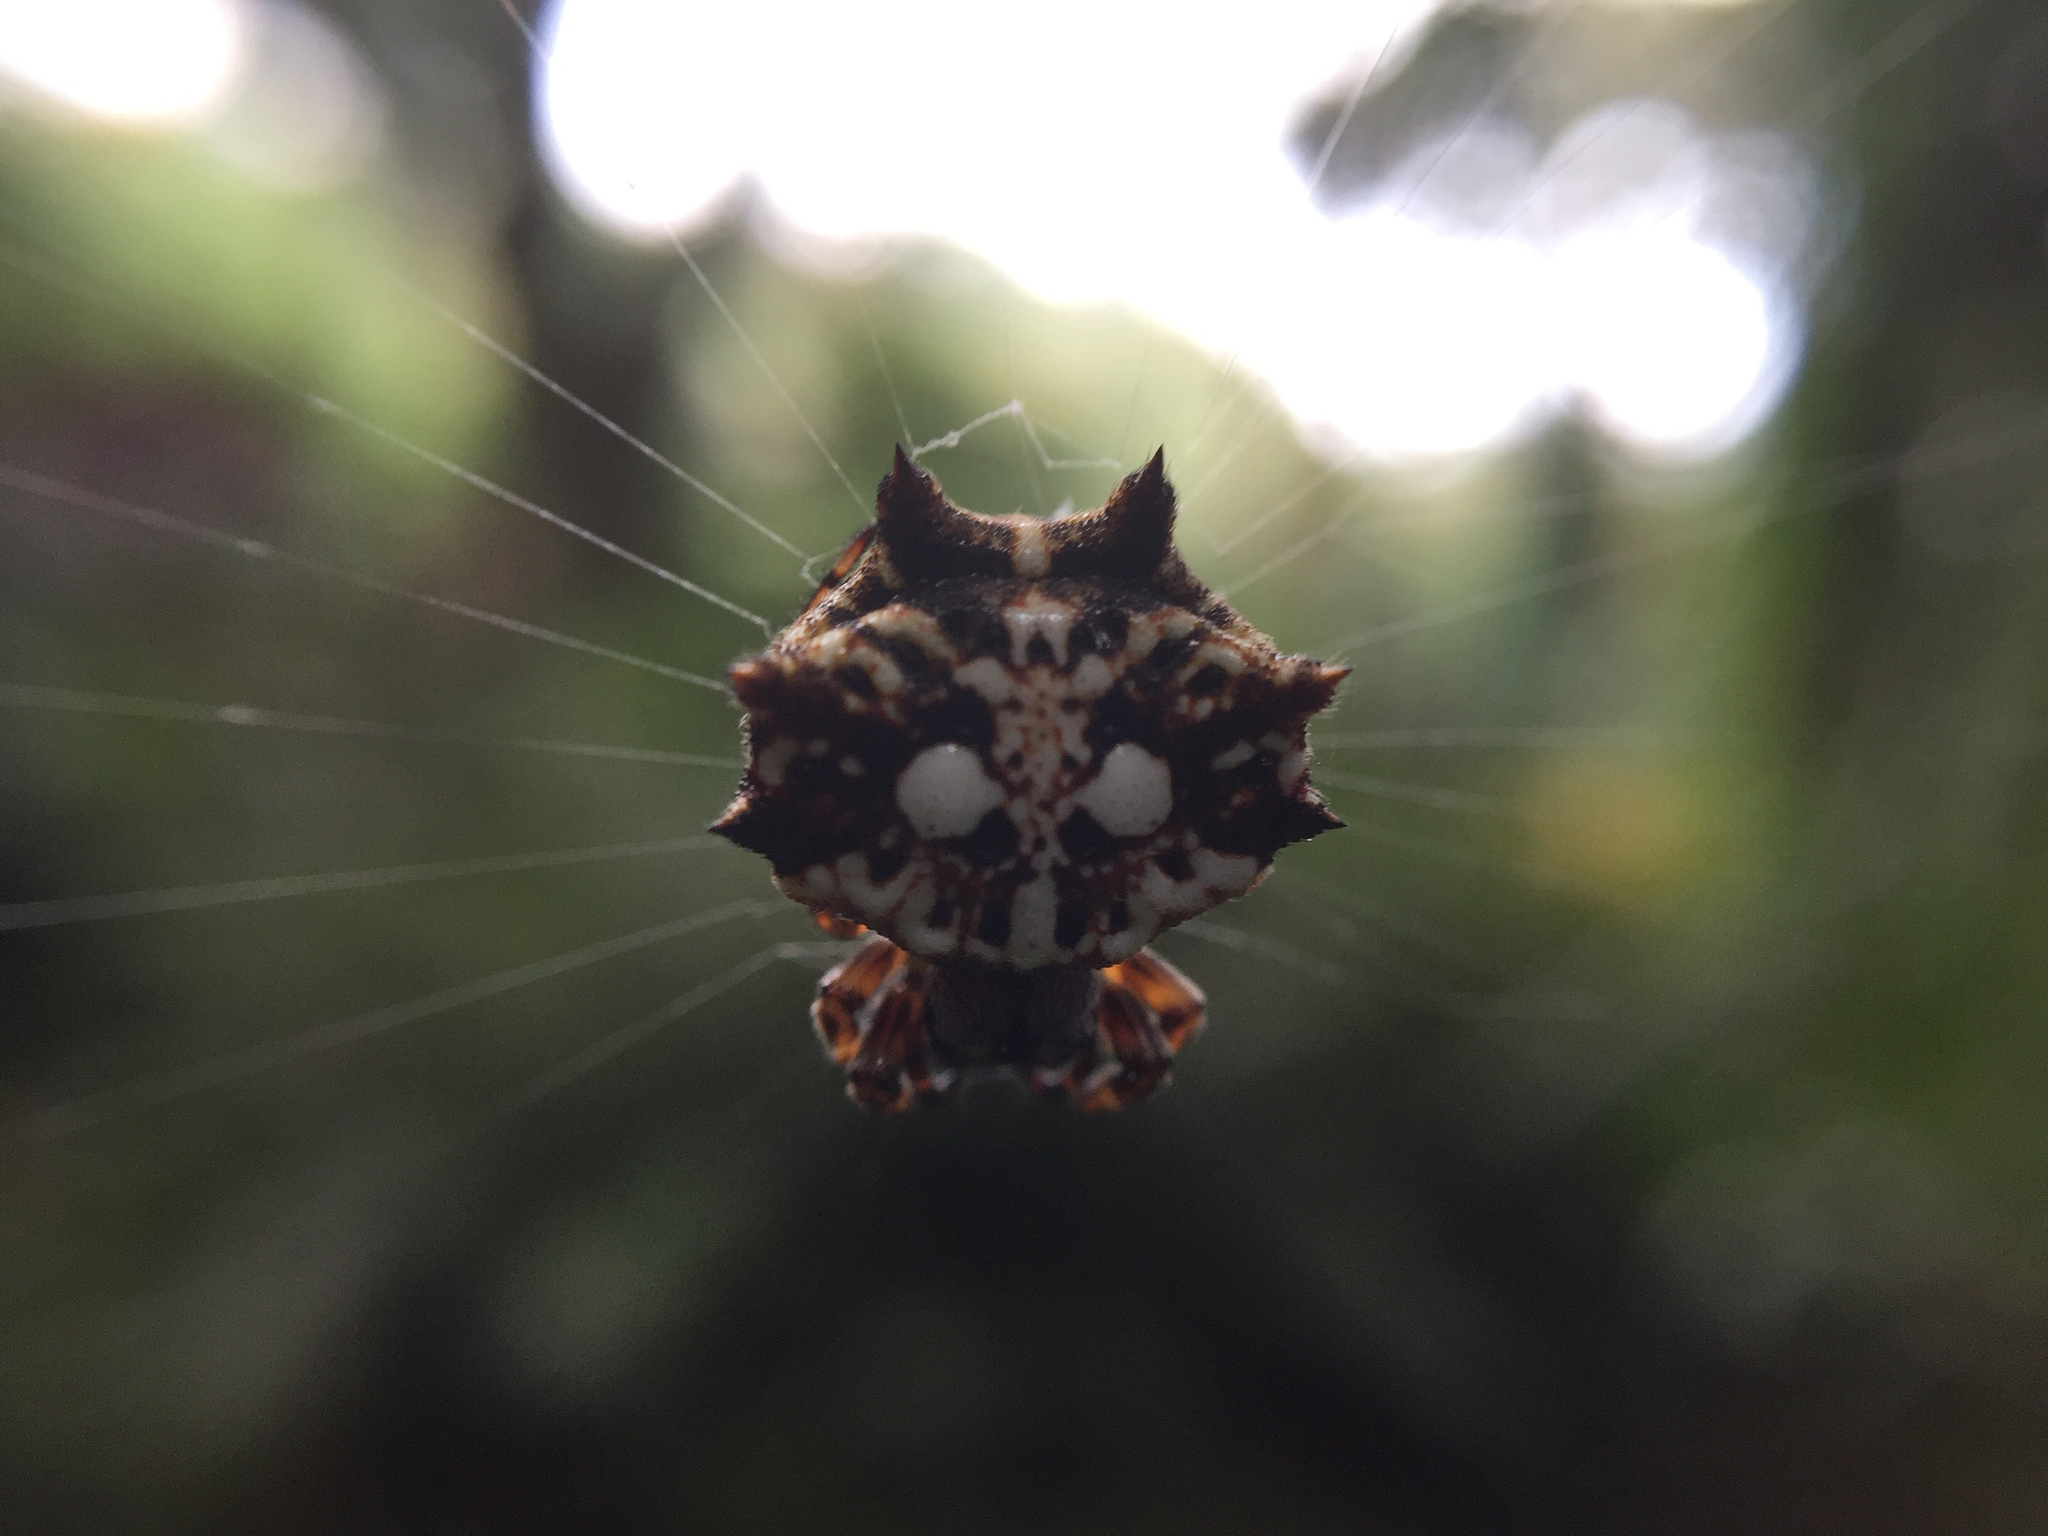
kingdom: Animalia
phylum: Arthropoda
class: Arachnida
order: Araneae
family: Araneidae
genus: Thelacantha
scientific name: Thelacantha brevispina
